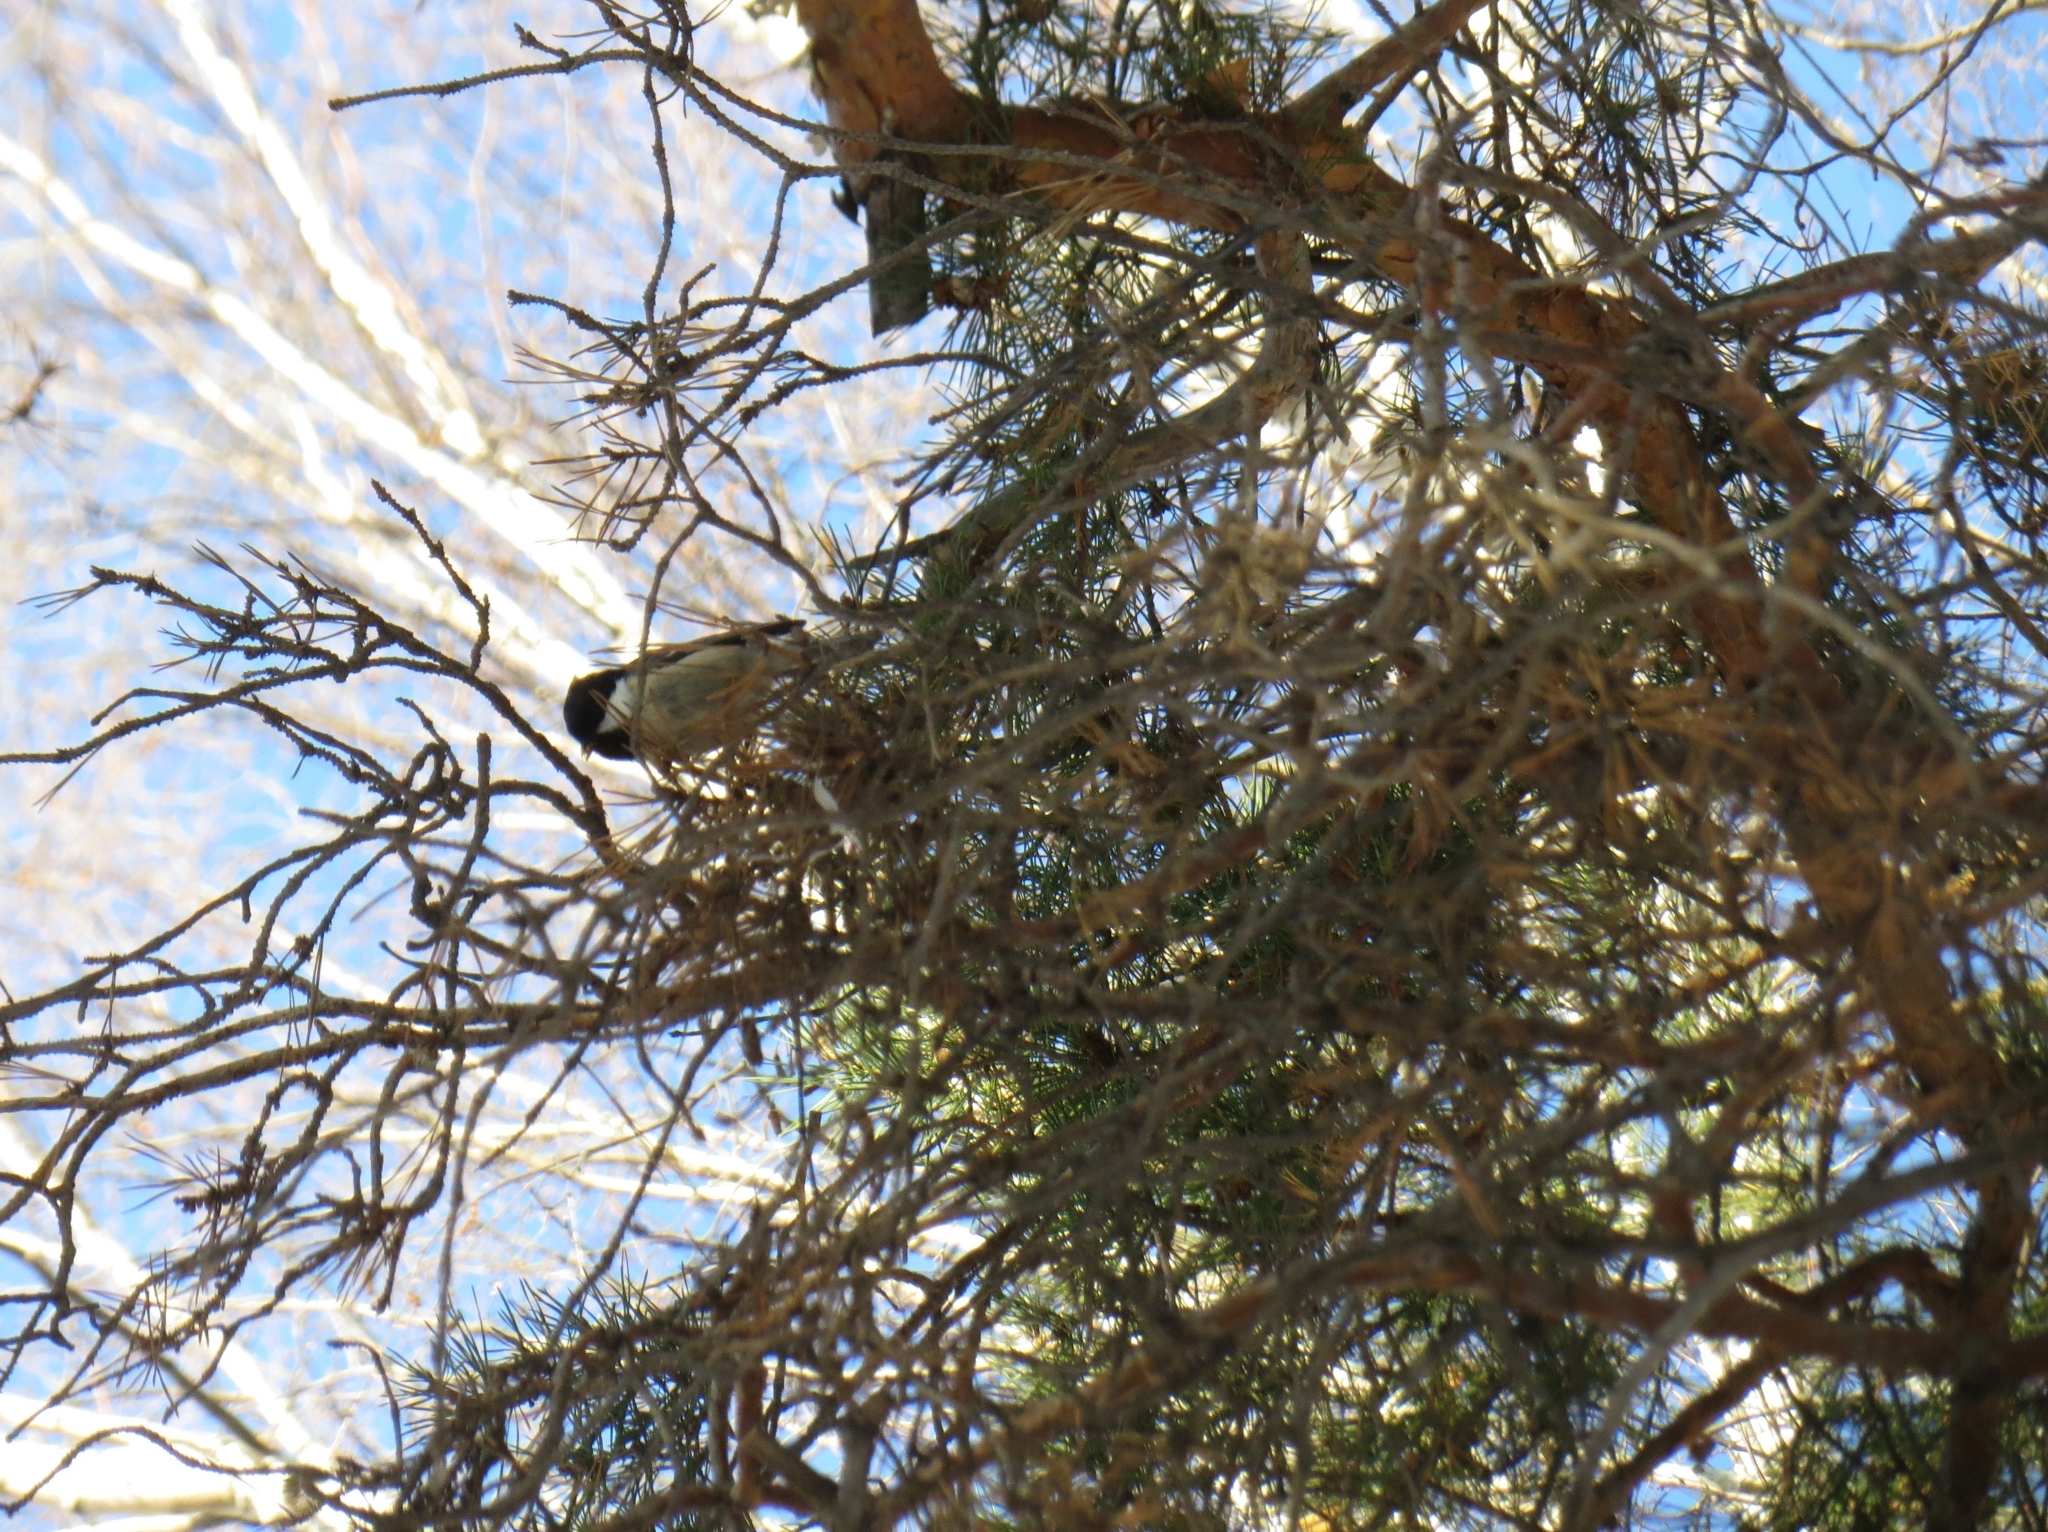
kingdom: Animalia
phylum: Chordata
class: Aves
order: Passeriformes
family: Paridae
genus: Periparus
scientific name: Periparus ater
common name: Coal tit
